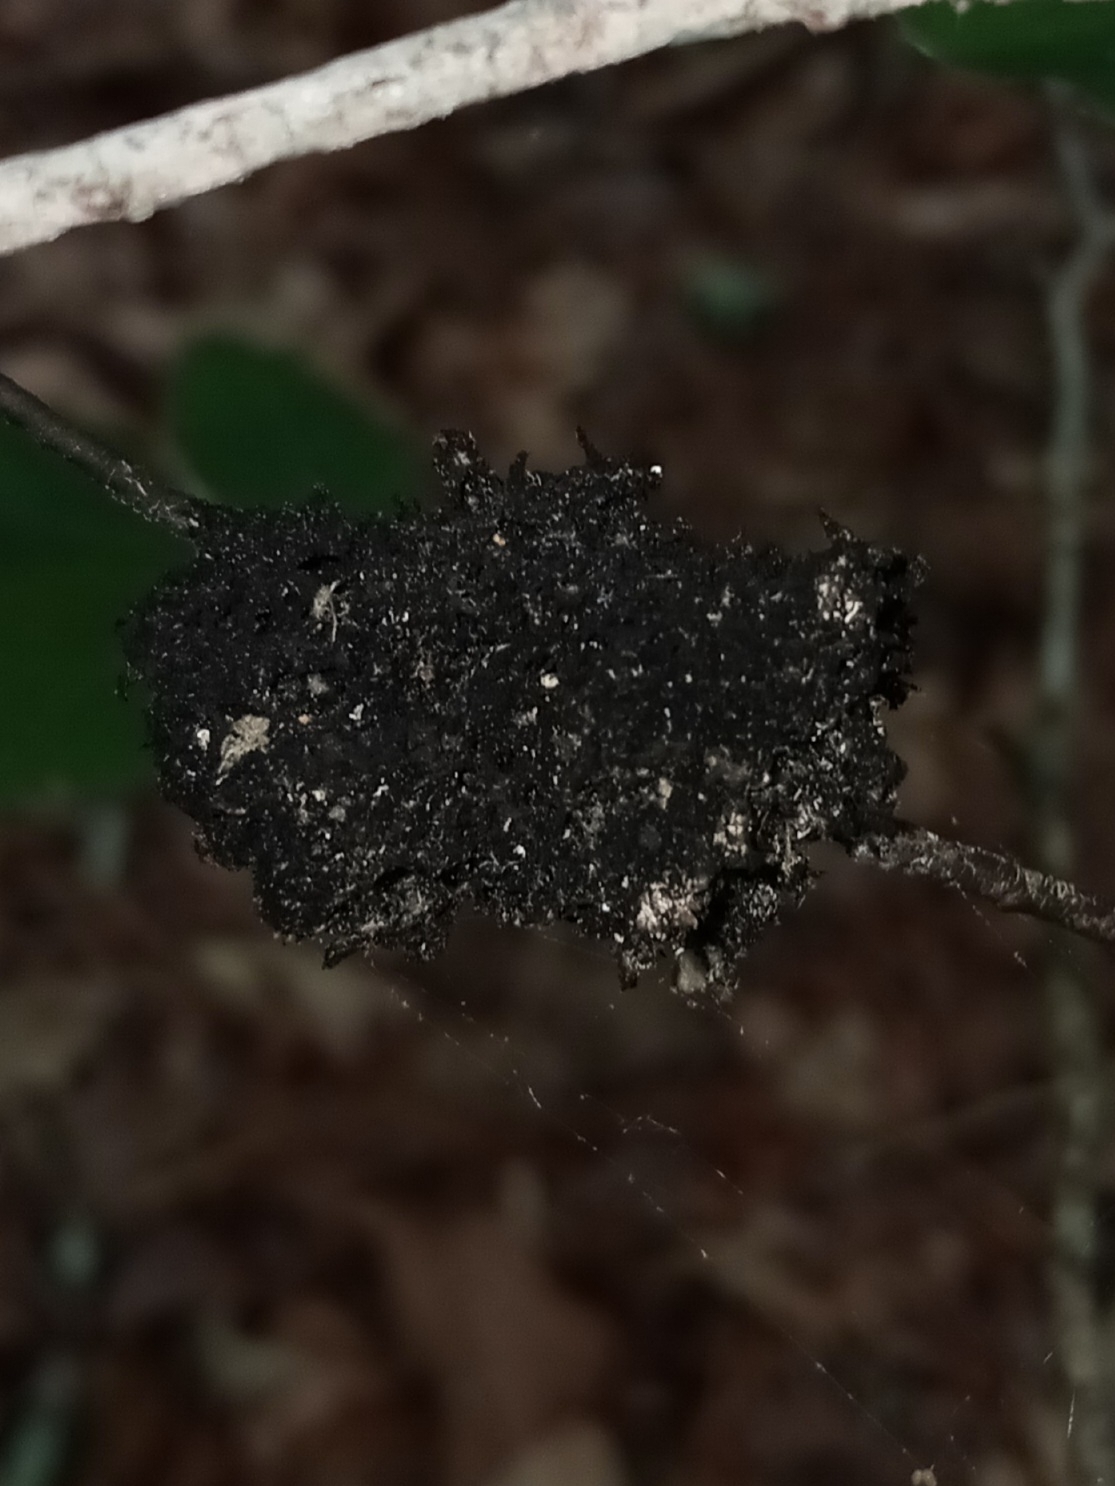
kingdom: Fungi
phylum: Ascomycota
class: Dothideomycetes
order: Capnodiales
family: Capnodiaceae
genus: Scorias
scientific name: Scorias spongiosa
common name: Black sooty mold
